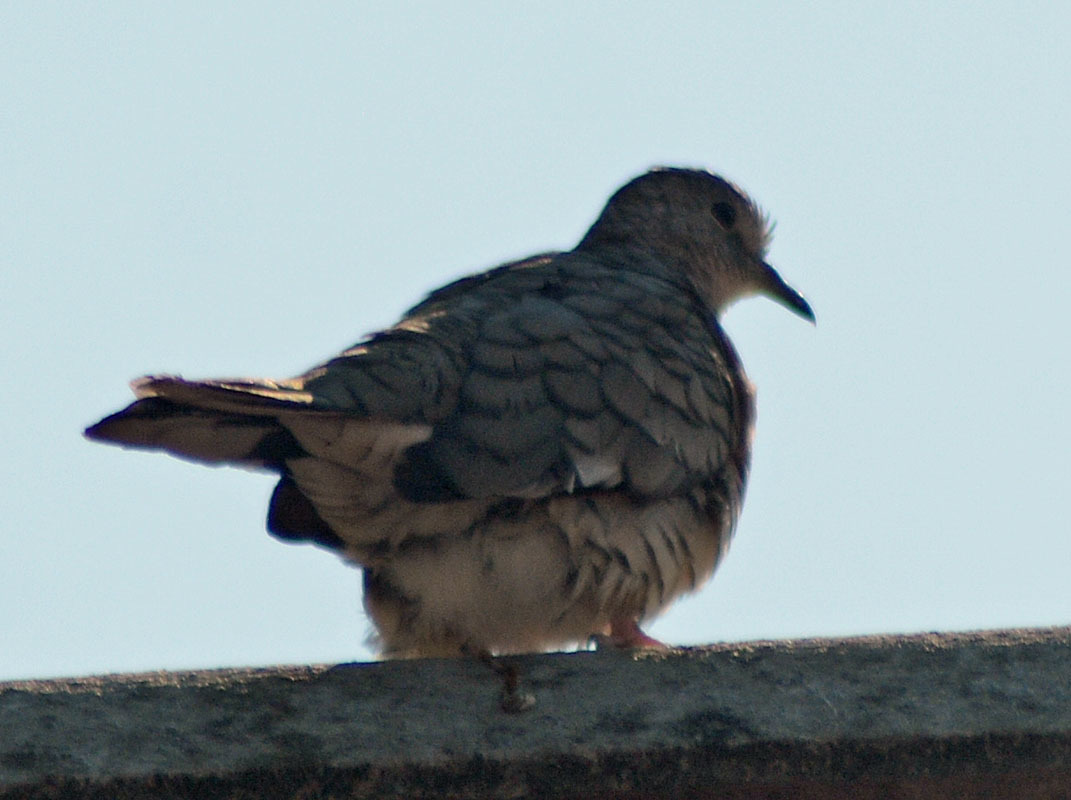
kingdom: Animalia
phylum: Chordata
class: Aves
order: Columbiformes
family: Columbidae
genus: Columbina
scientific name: Columbina inca
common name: Inca dove
